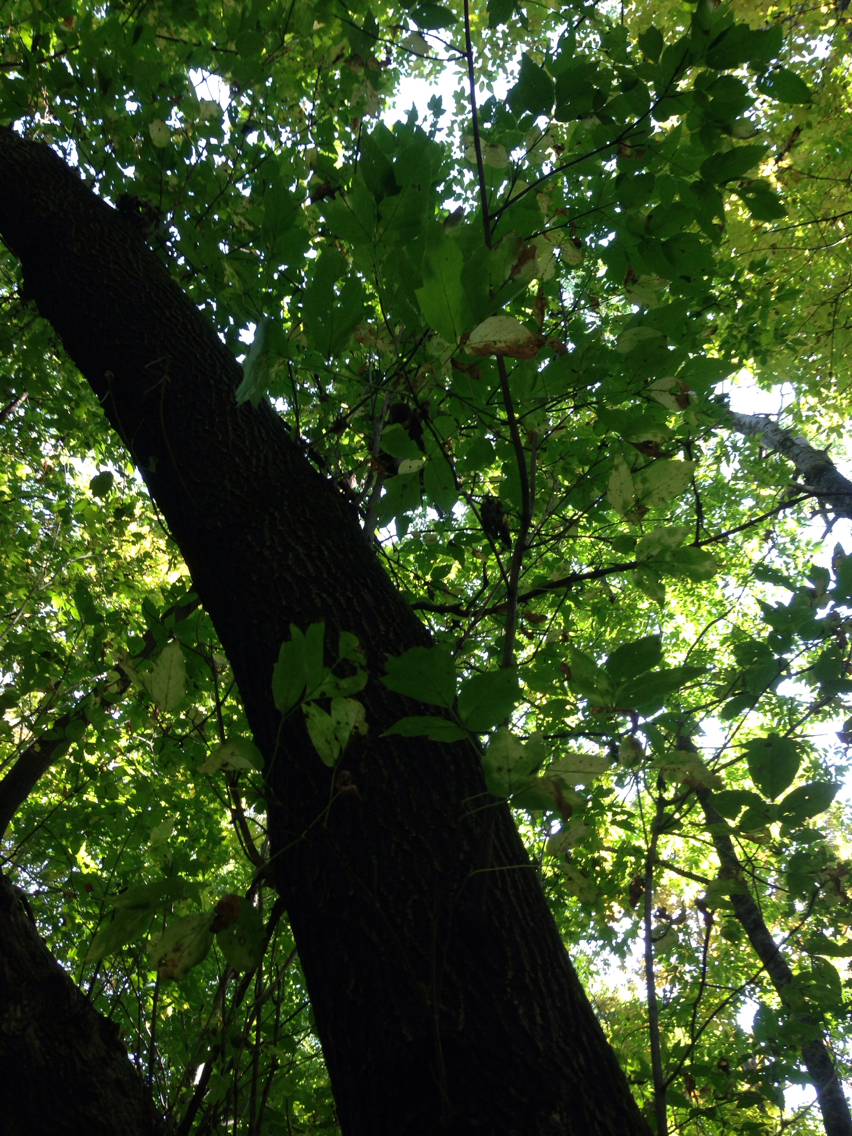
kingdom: Plantae
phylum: Tracheophyta
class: Magnoliopsida
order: Sapindales
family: Sapindaceae
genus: Acer
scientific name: Acer negundo
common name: Ashleaf maple
